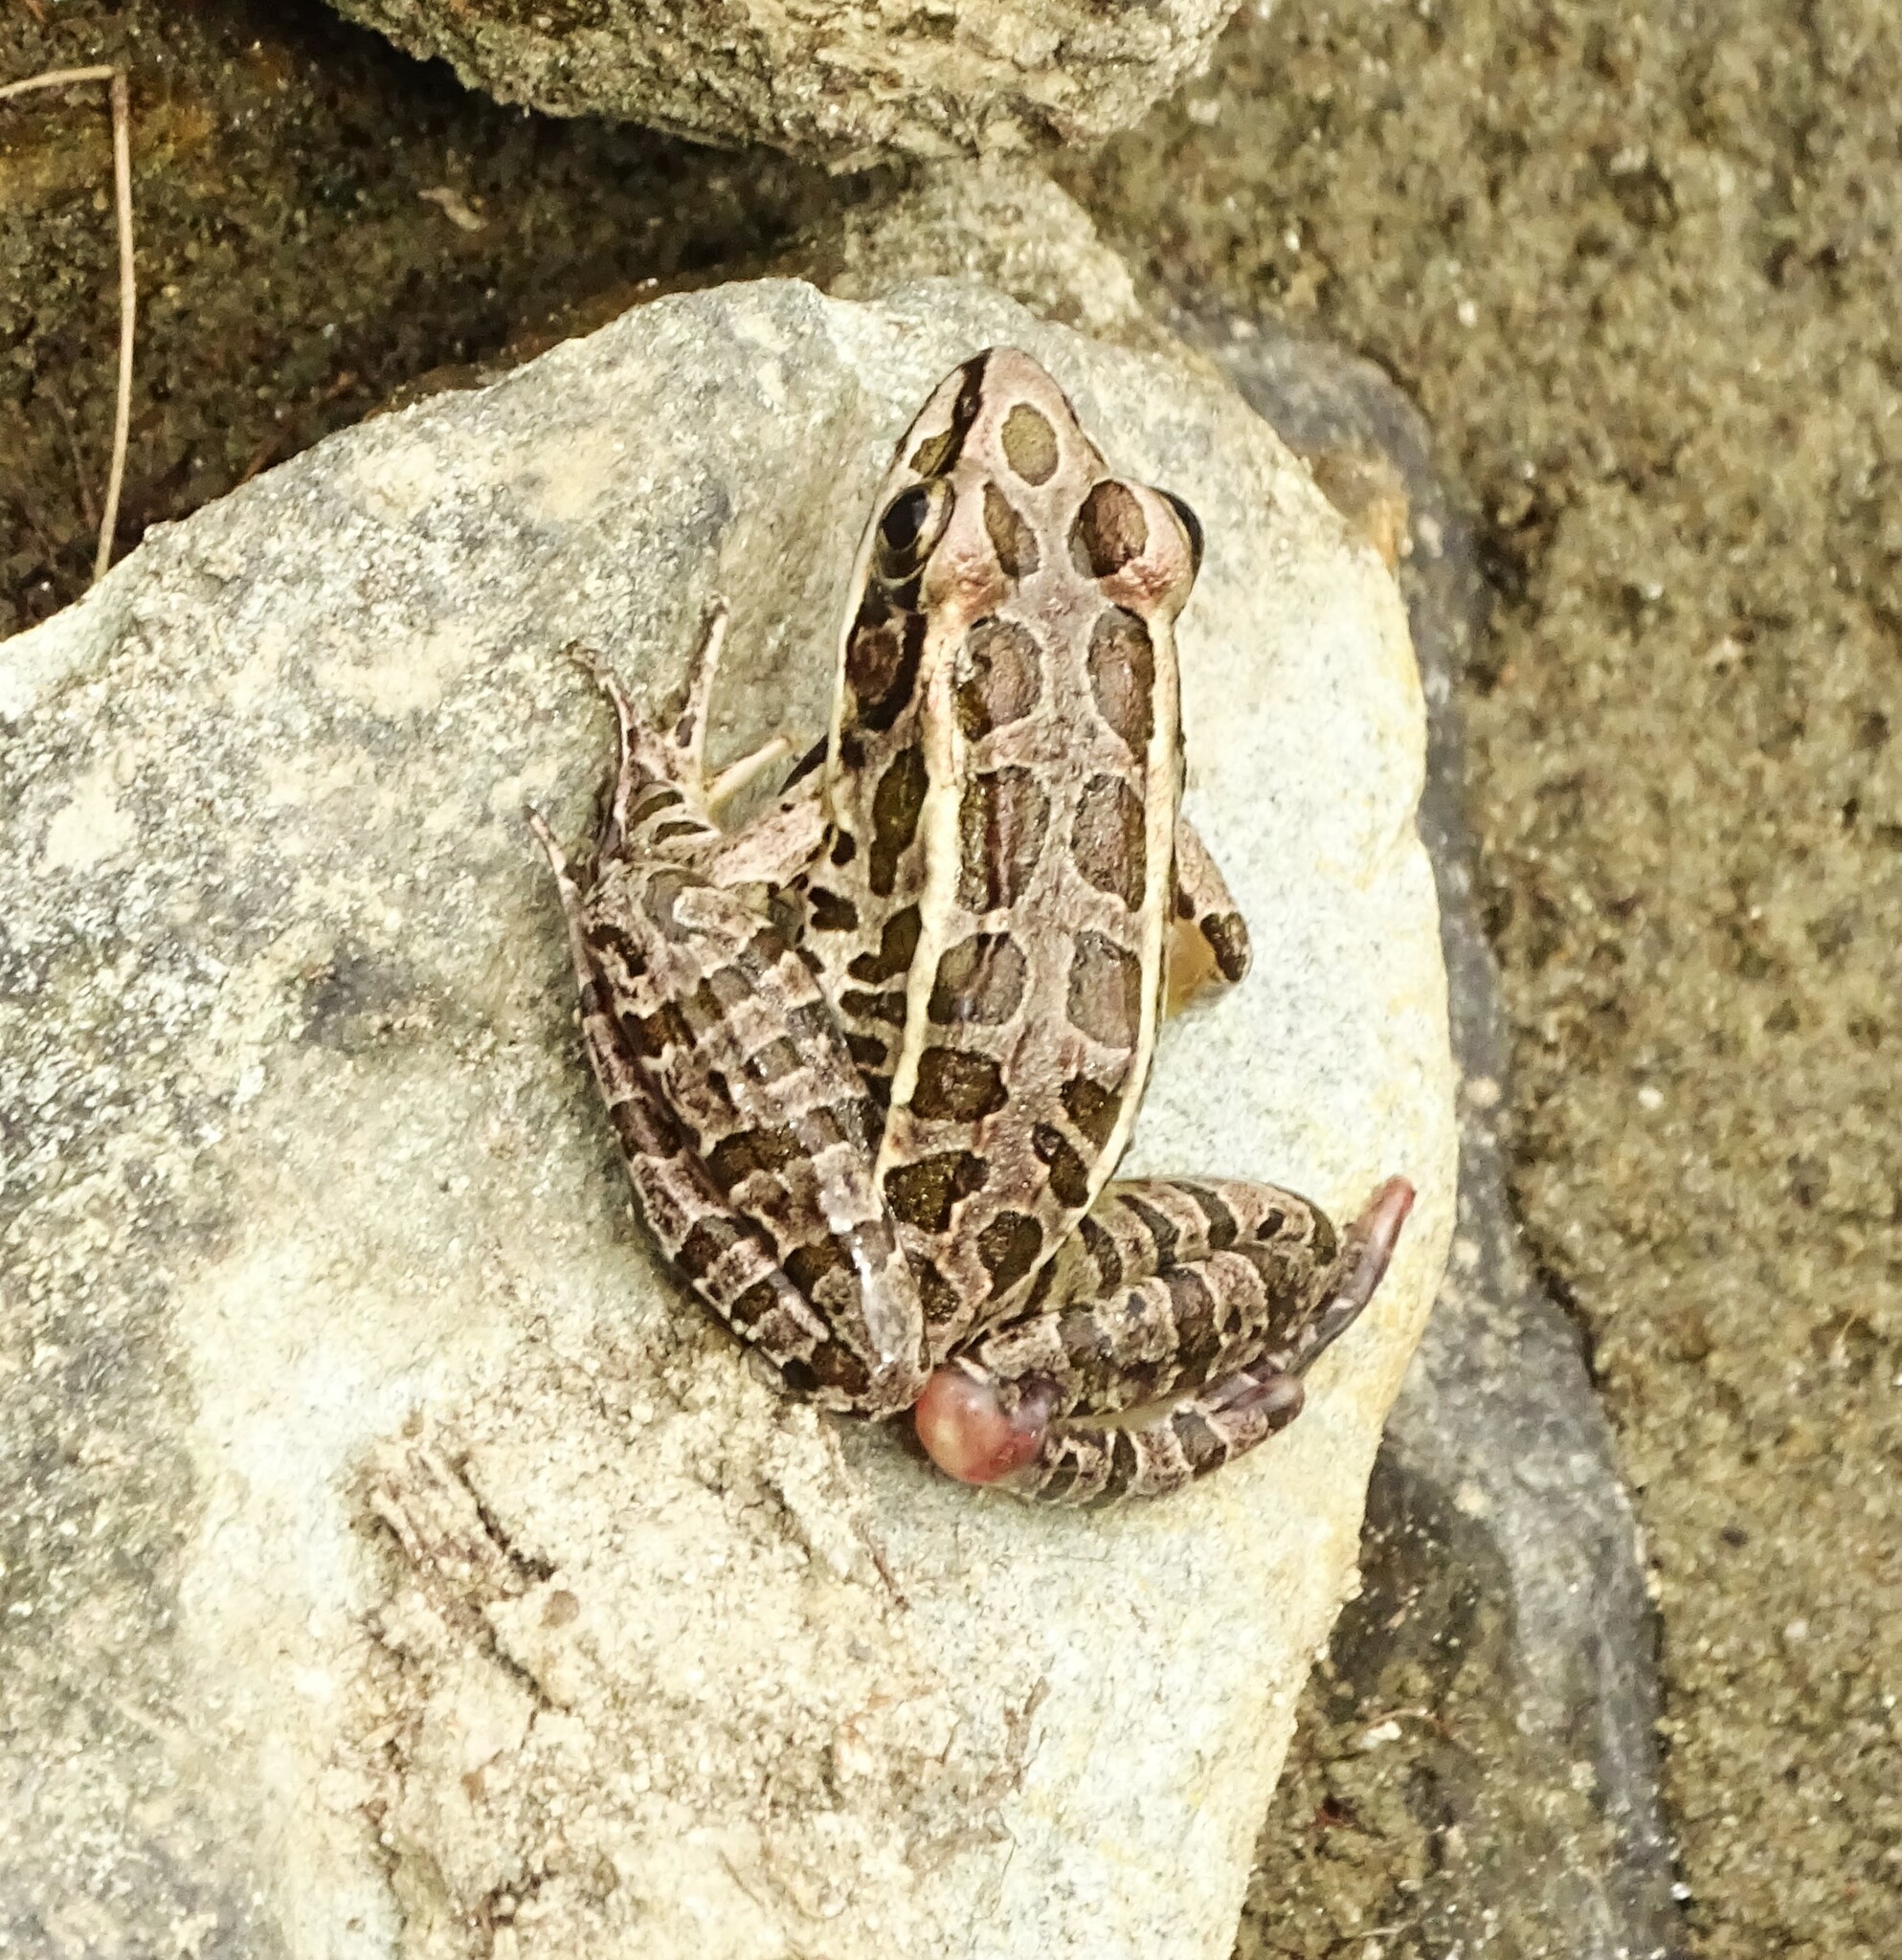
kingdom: Animalia
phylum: Chordata
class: Amphibia
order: Anura
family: Ranidae
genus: Lithobates
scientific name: Lithobates palustris
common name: Pickerel frog
